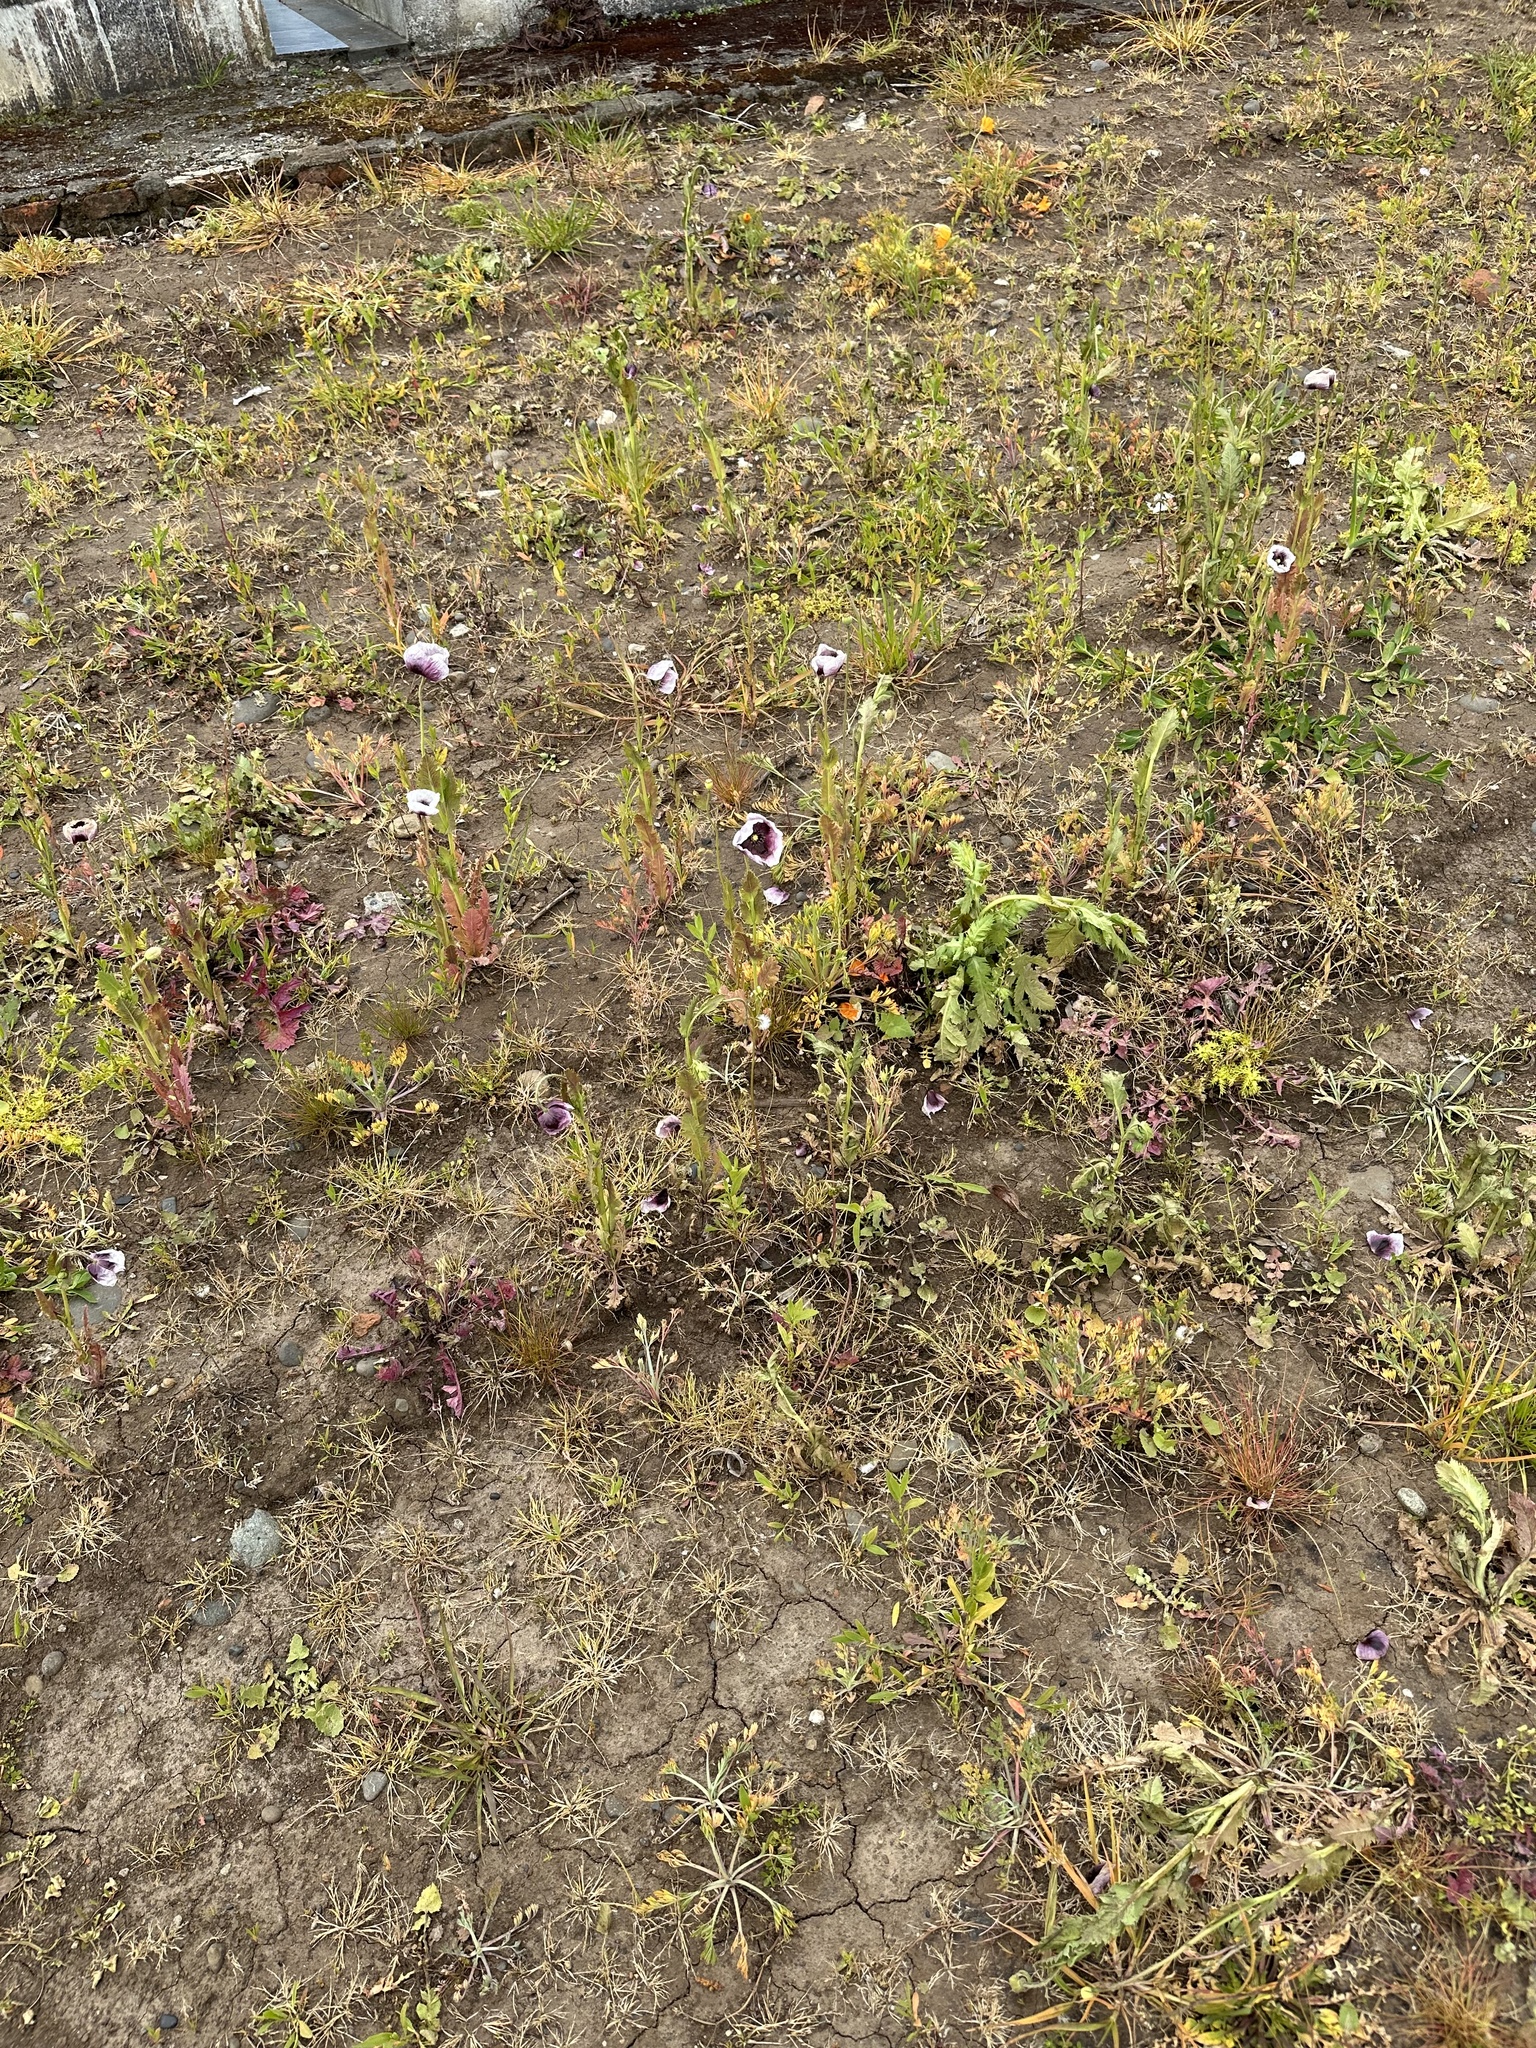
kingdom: Plantae
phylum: Tracheophyta
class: Magnoliopsida
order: Ranunculales
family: Papaveraceae
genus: Papaver
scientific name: Papaver somniferum
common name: Opium poppy
